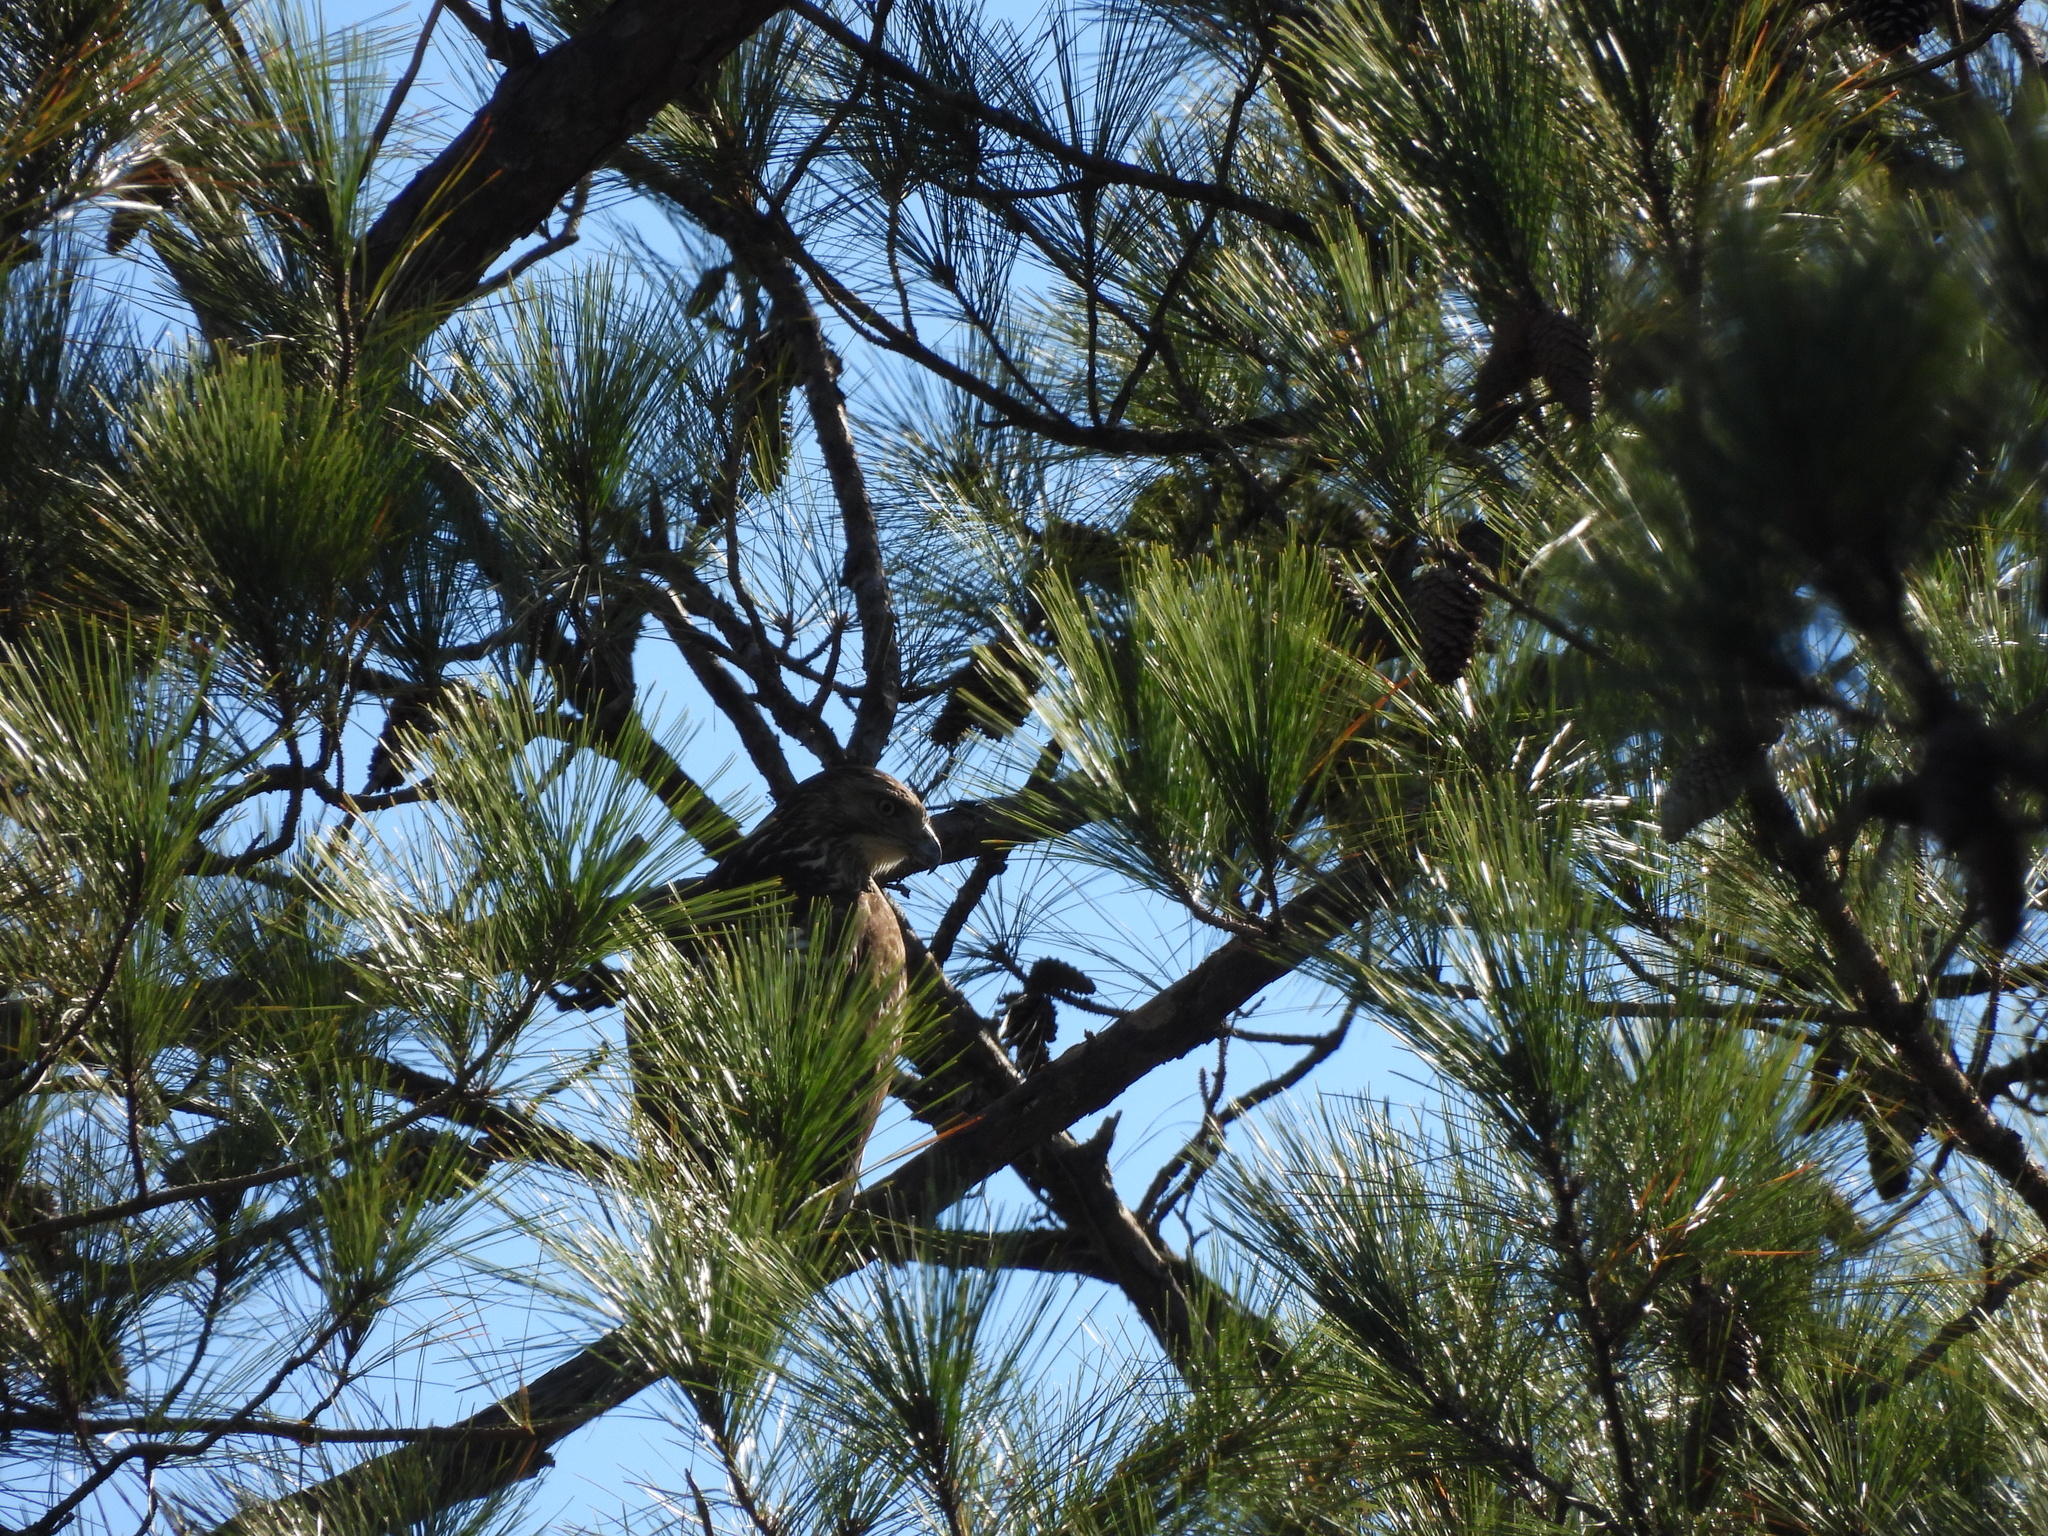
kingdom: Animalia
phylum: Chordata
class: Aves
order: Accipitriformes
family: Accipitridae
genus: Buteo
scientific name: Buteo jamaicensis
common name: Red-tailed hawk
